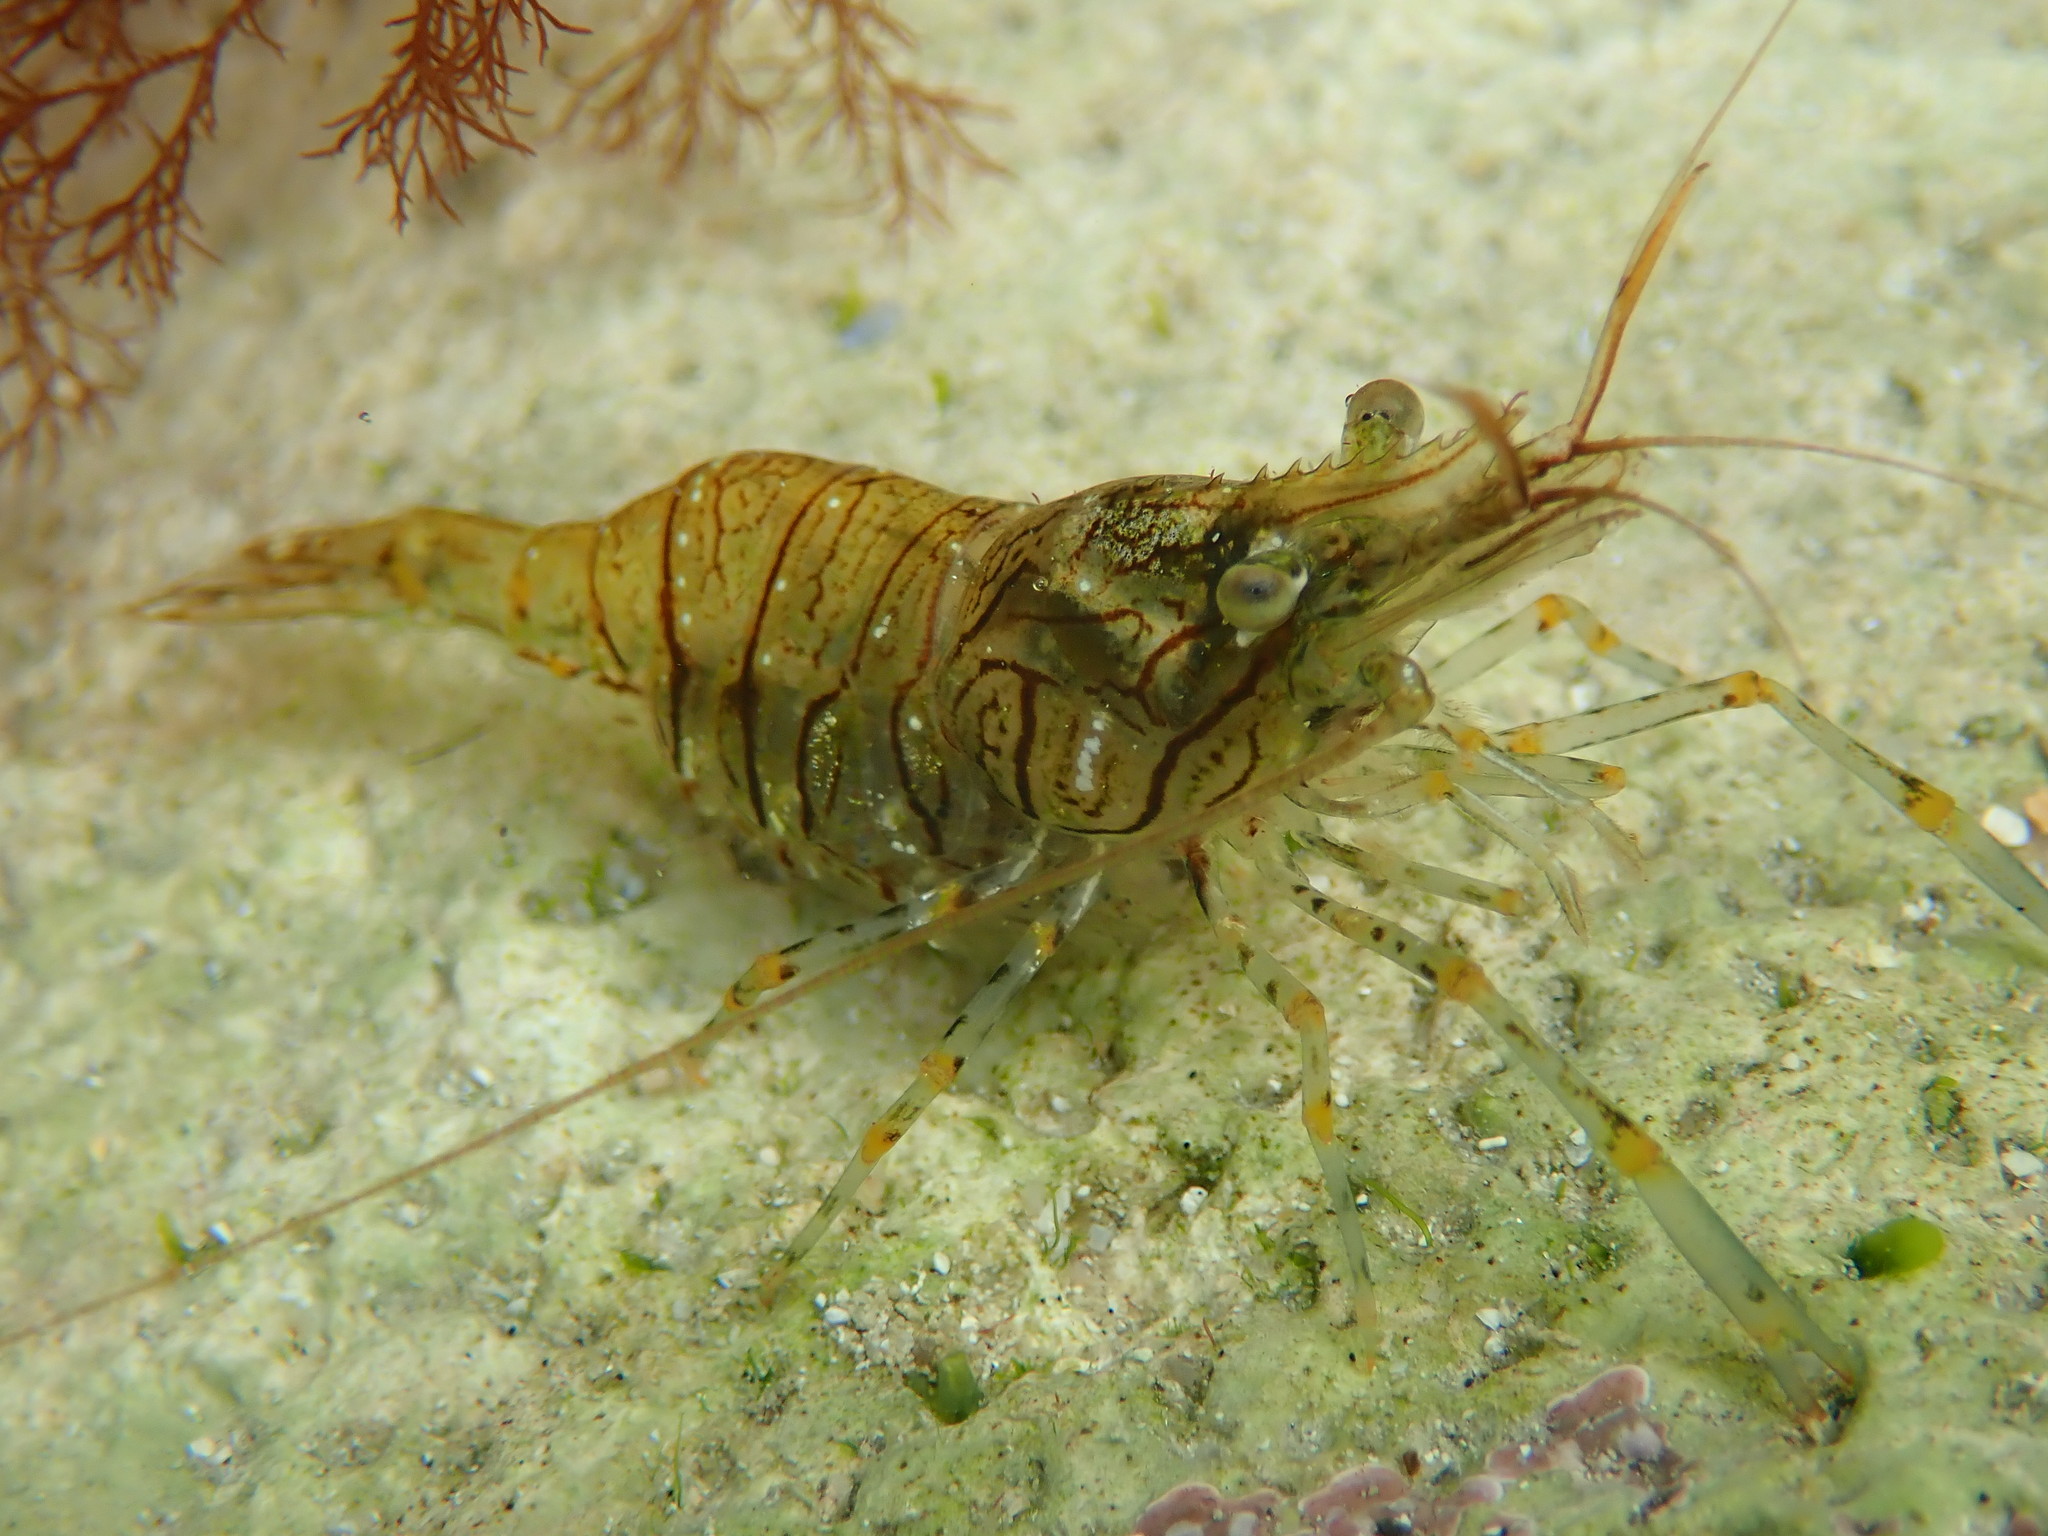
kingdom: Animalia
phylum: Arthropoda
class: Malacostraca
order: Decapoda
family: Palaemonidae
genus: Palaemon
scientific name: Palaemon elegans
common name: Grass prawm
